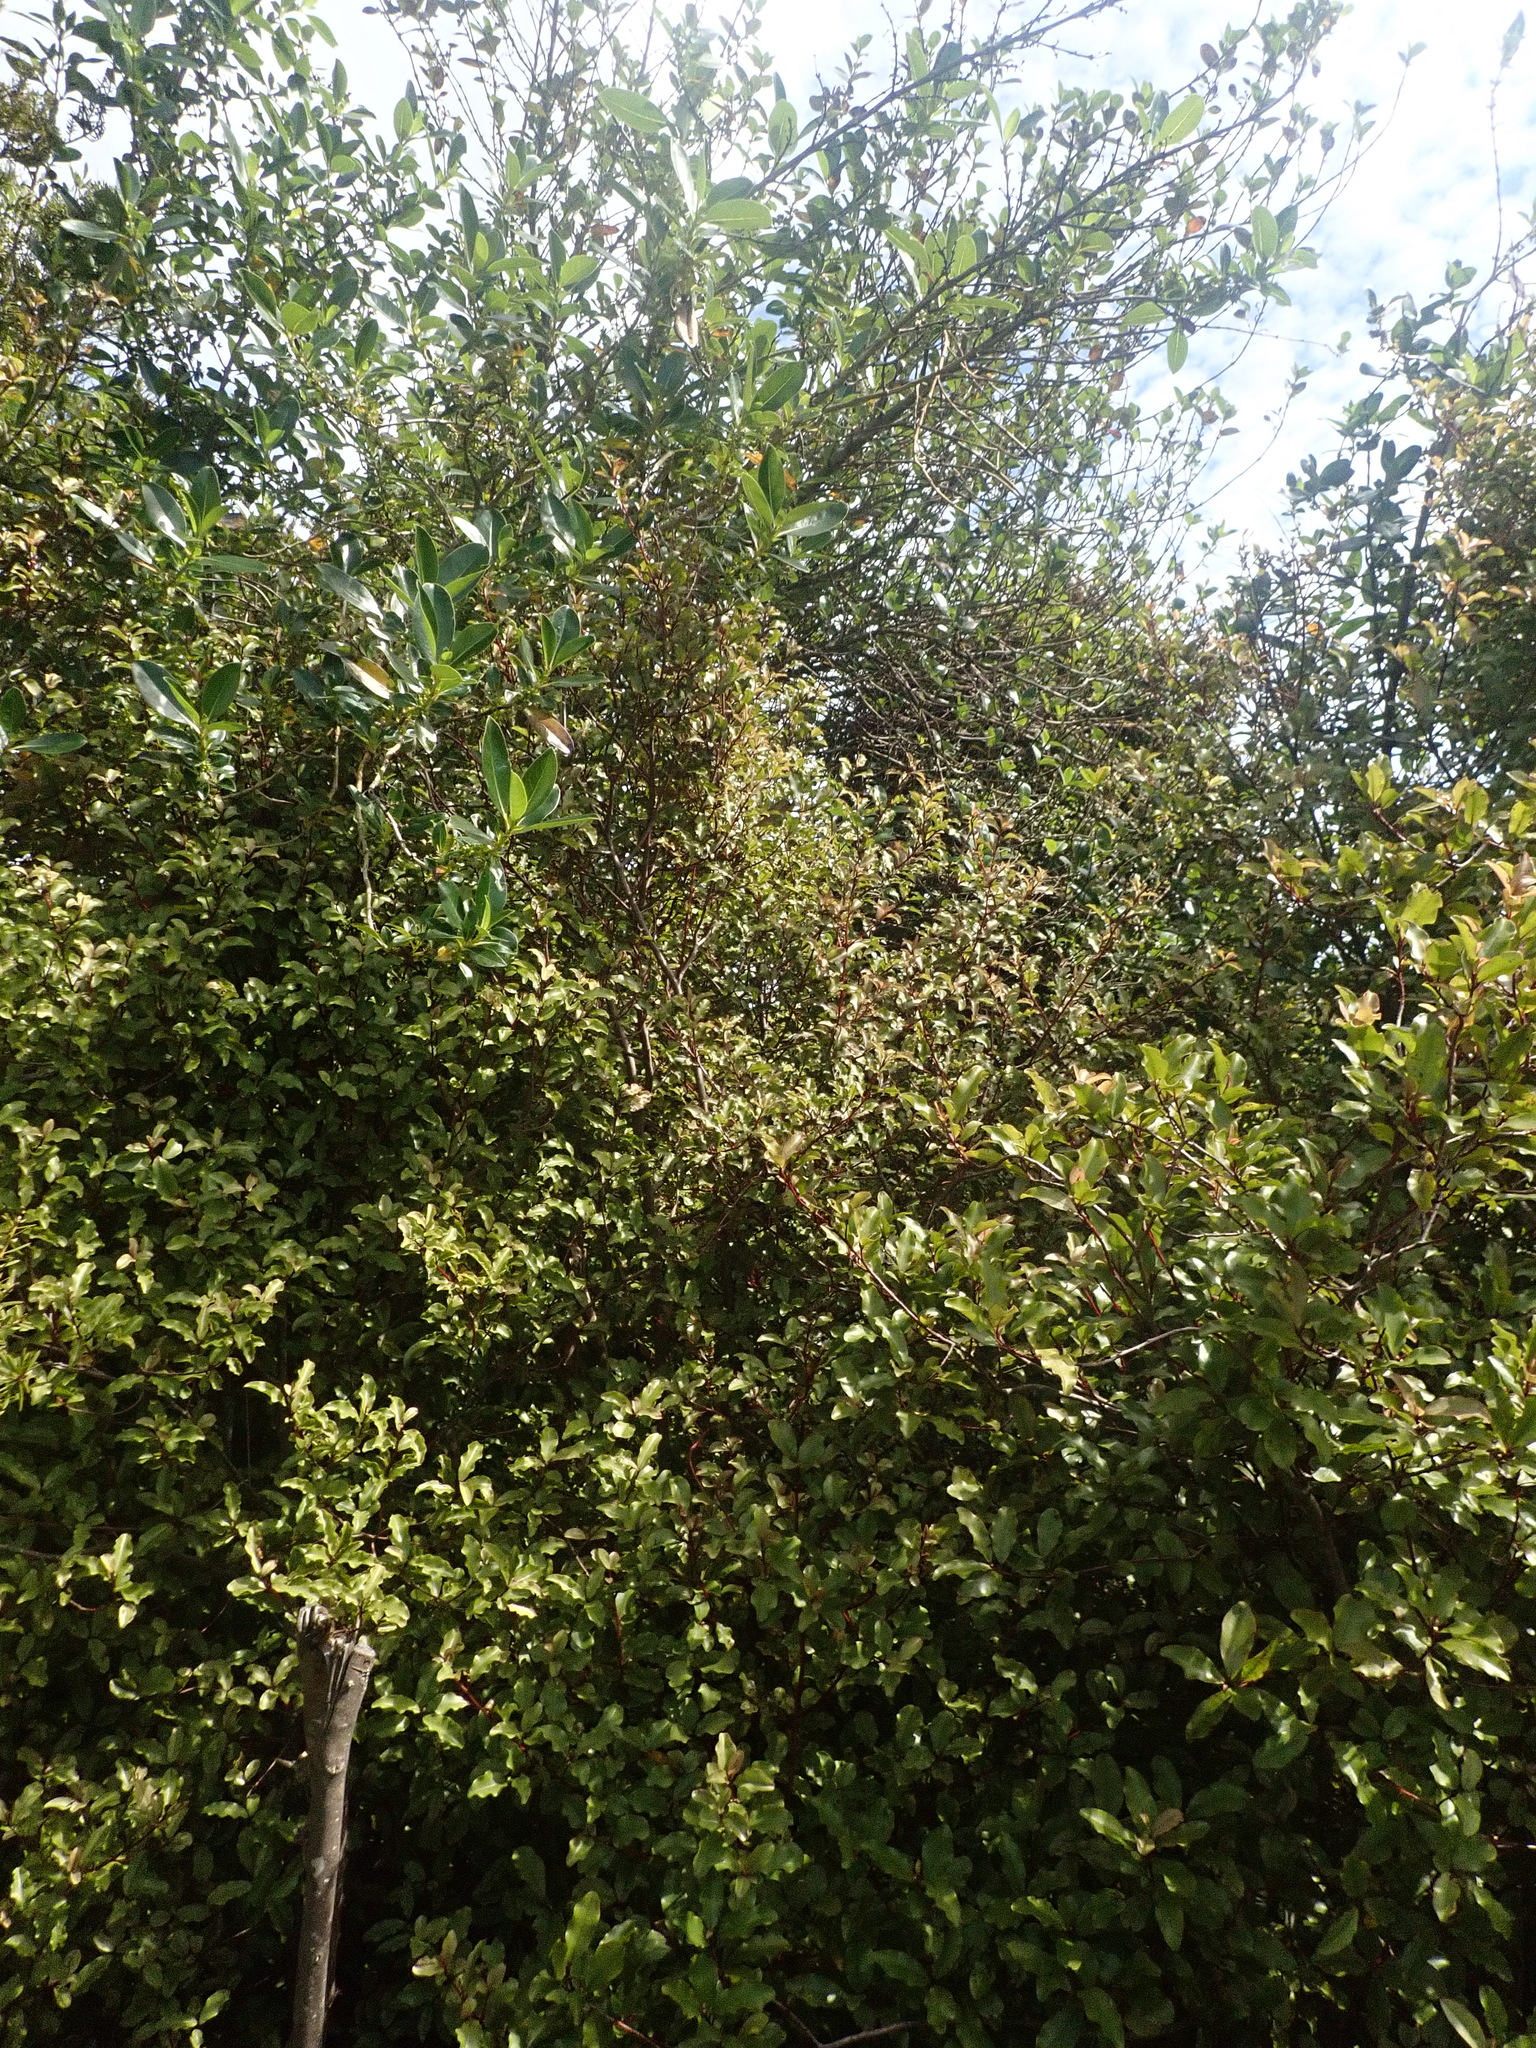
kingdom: Plantae
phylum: Tracheophyta
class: Magnoliopsida
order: Gentianales
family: Rubiaceae
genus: Coprosma
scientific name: Coprosma robusta
